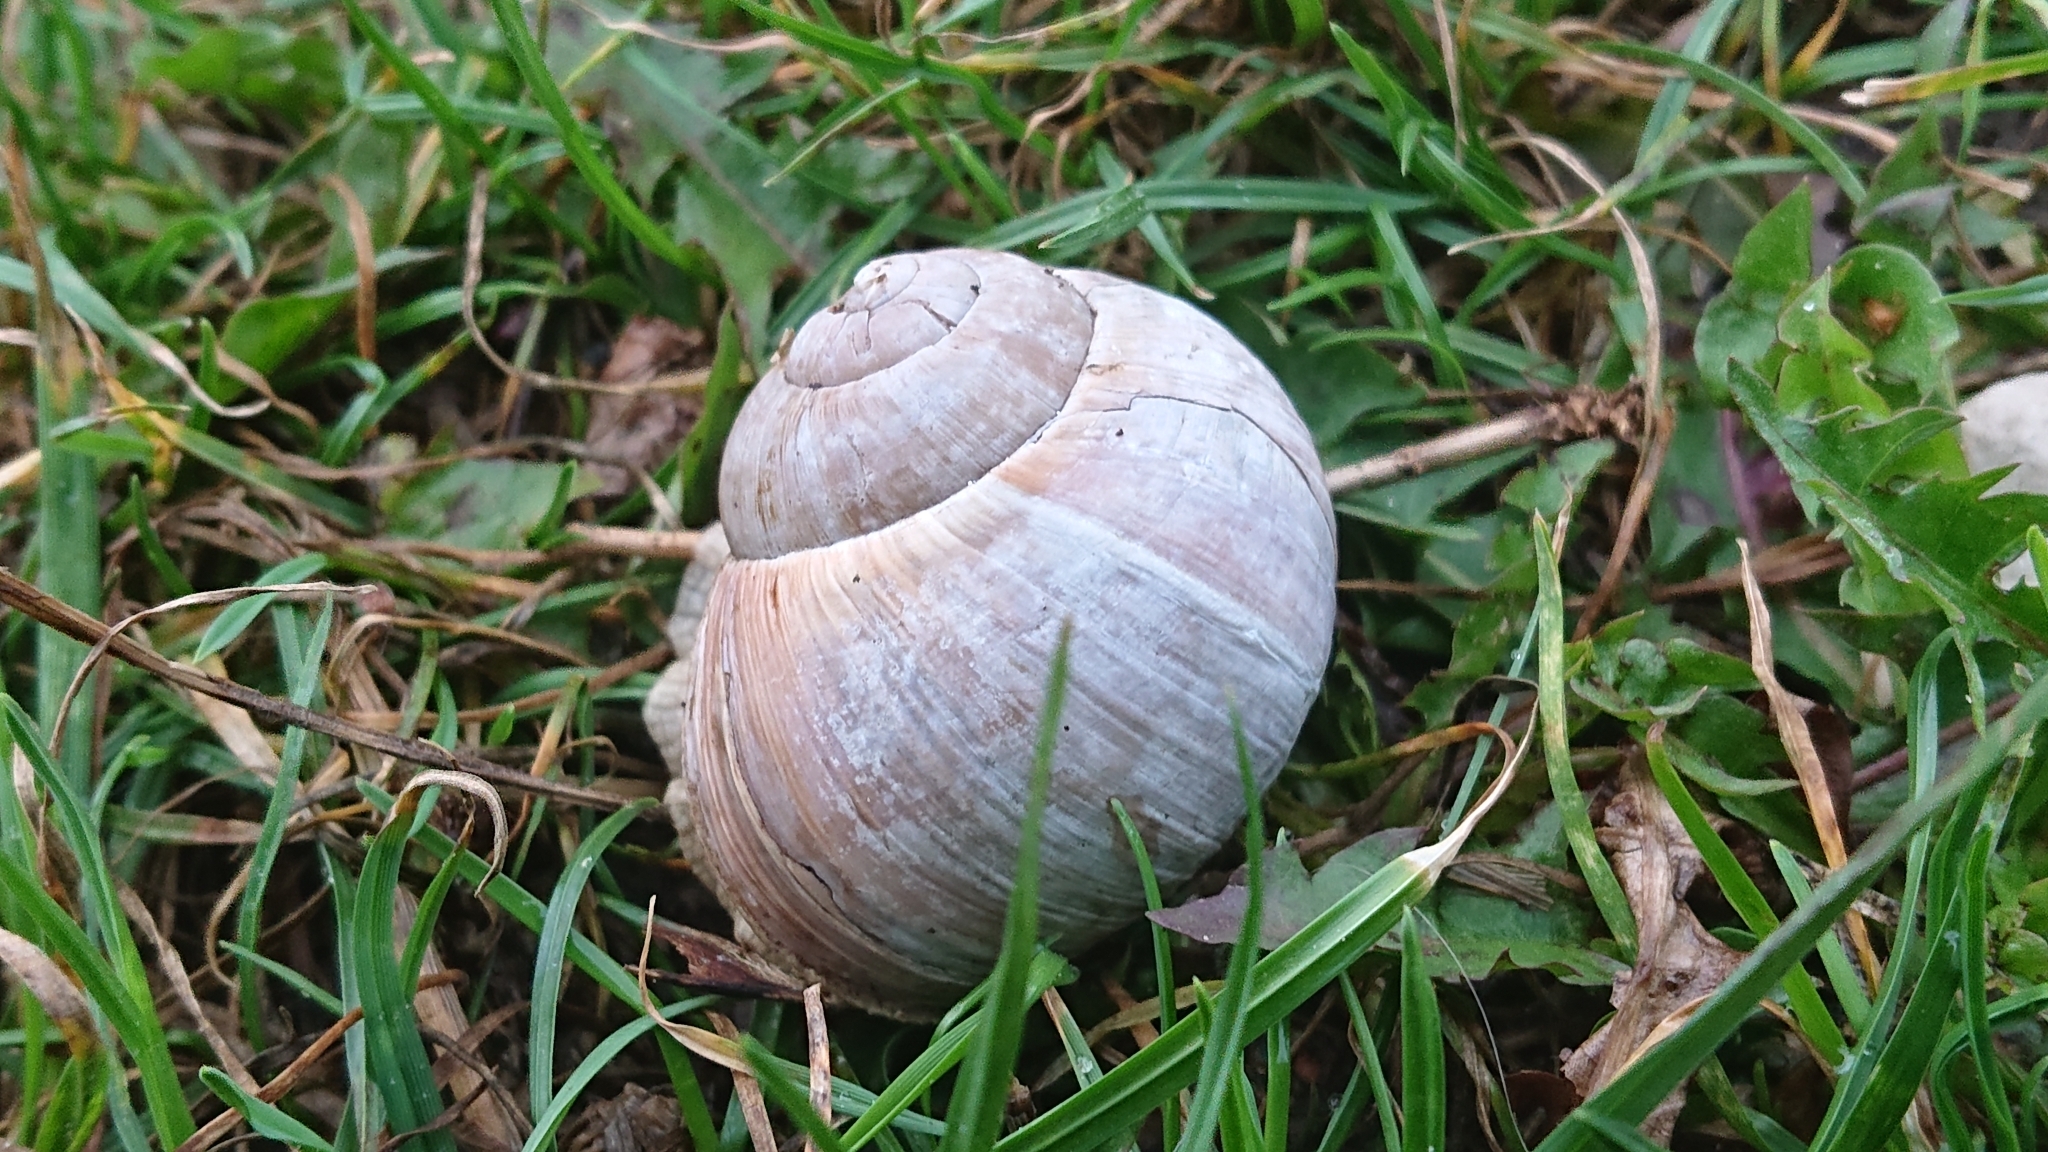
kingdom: Animalia
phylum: Mollusca
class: Gastropoda
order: Stylommatophora
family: Helicidae
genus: Helix
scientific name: Helix pomatia
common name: Roman snail
